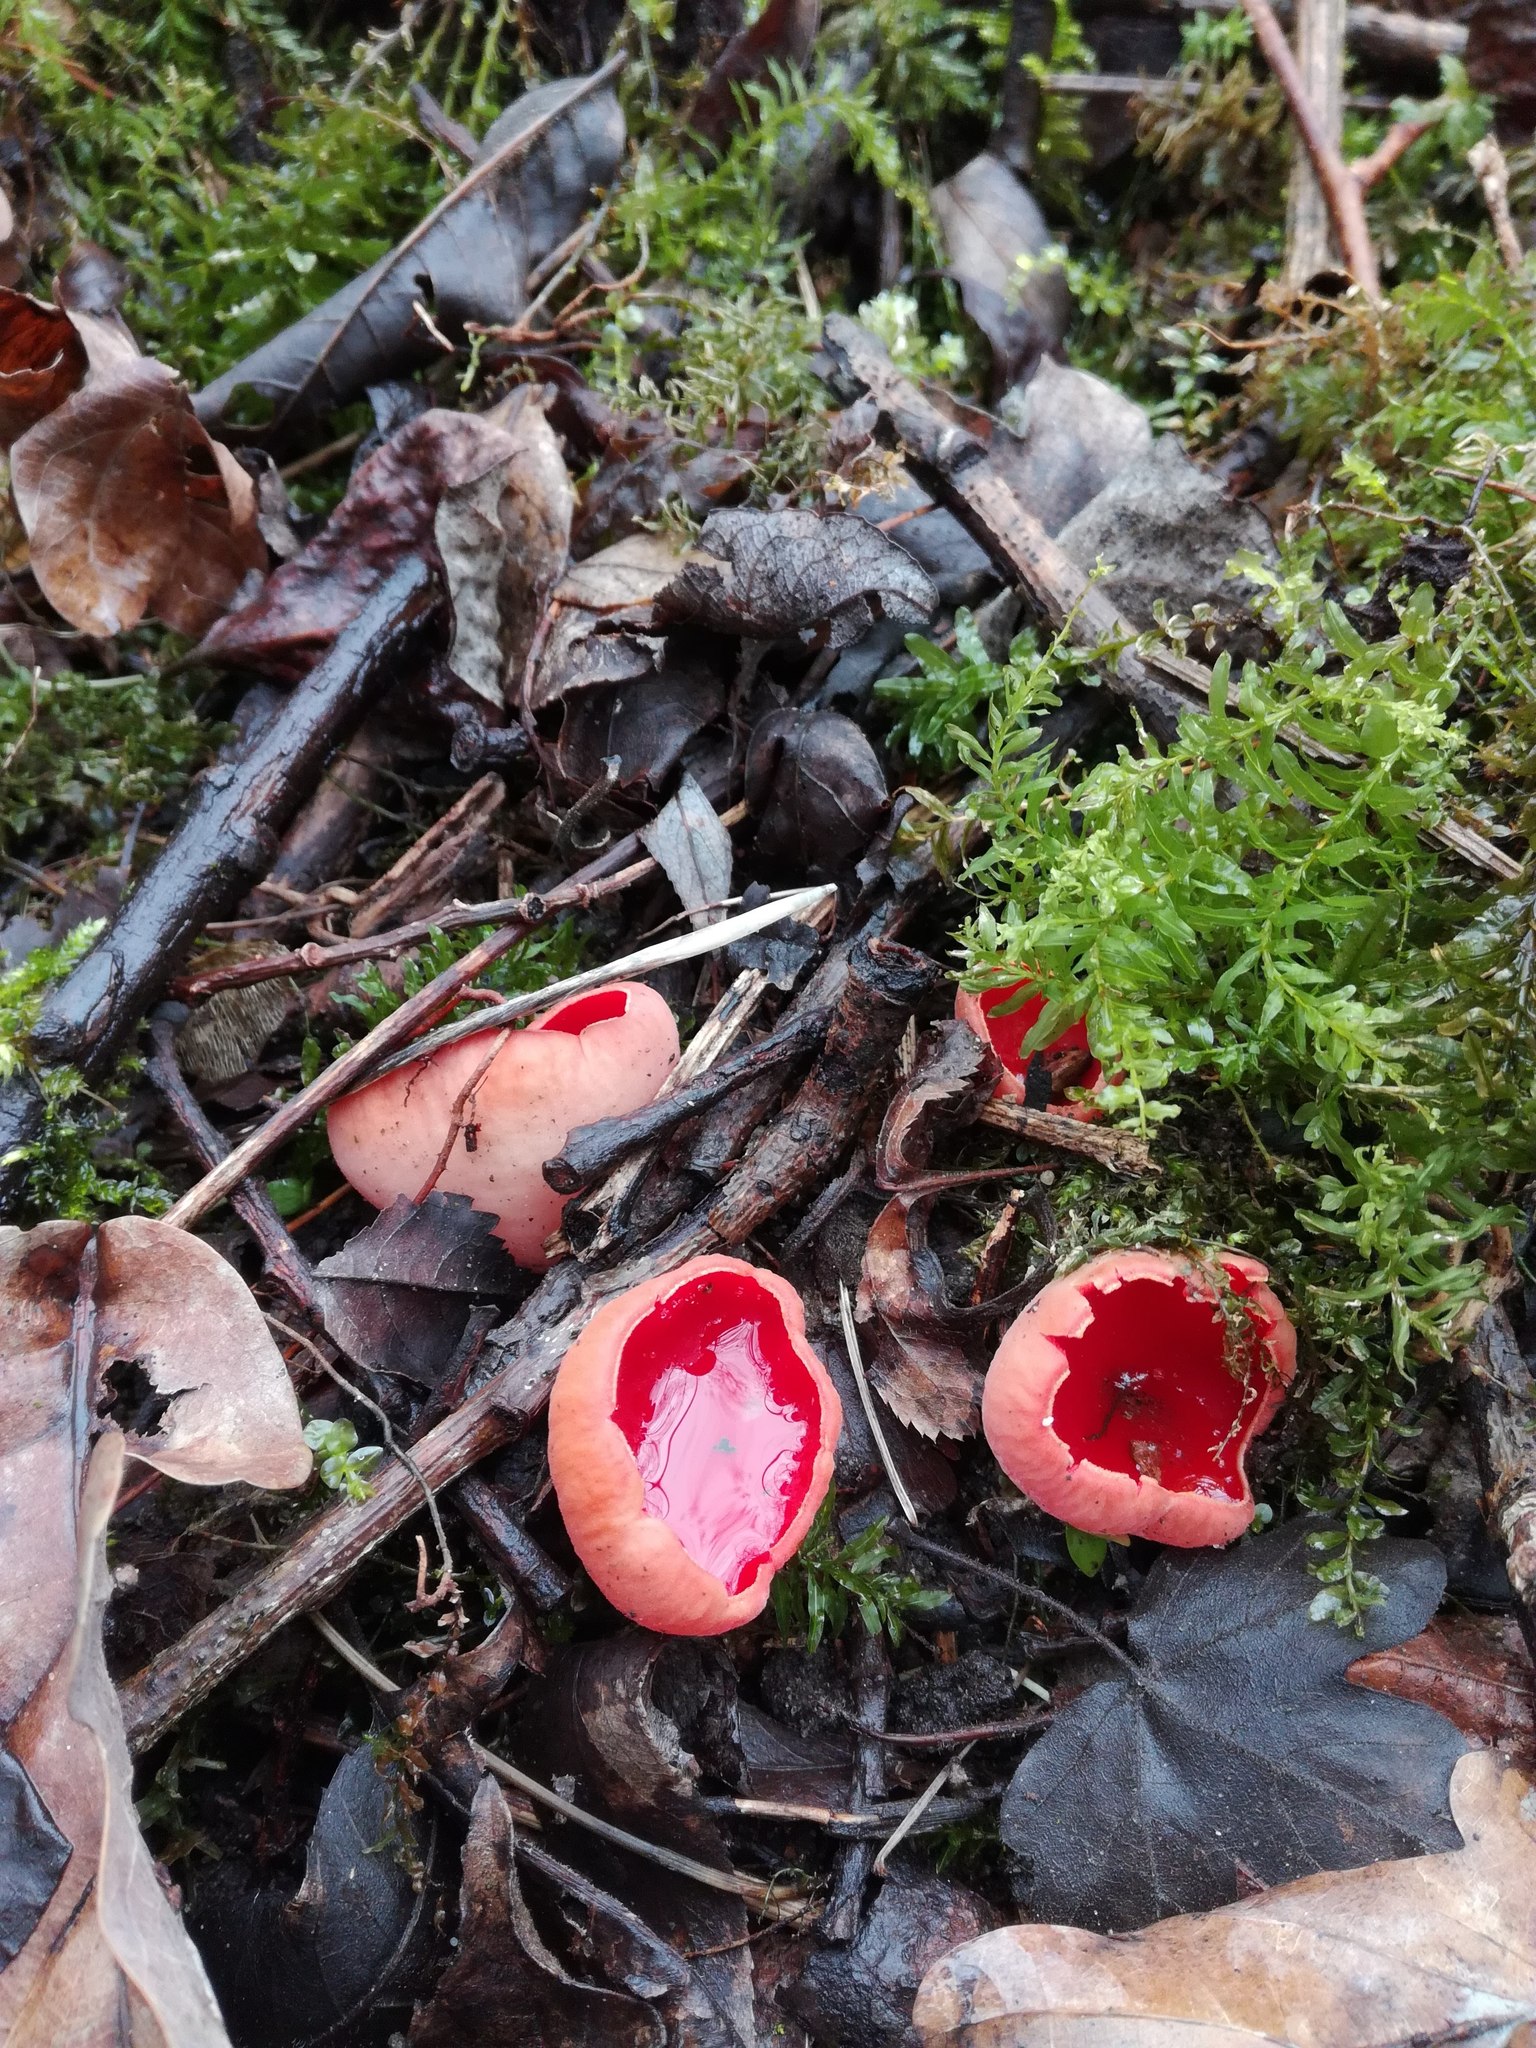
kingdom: Fungi
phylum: Ascomycota
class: Pezizomycetes
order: Pezizales
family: Sarcoscyphaceae
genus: Sarcoscypha
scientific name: Sarcoscypha austriaca
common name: Scarlet elfcup
